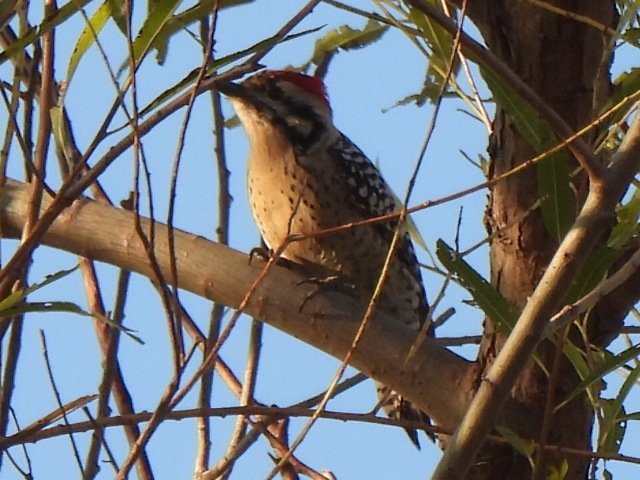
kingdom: Animalia
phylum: Chordata
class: Aves
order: Piciformes
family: Picidae
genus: Dryobates
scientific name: Dryobates scalaris
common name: Ladder-backed woodpecker
